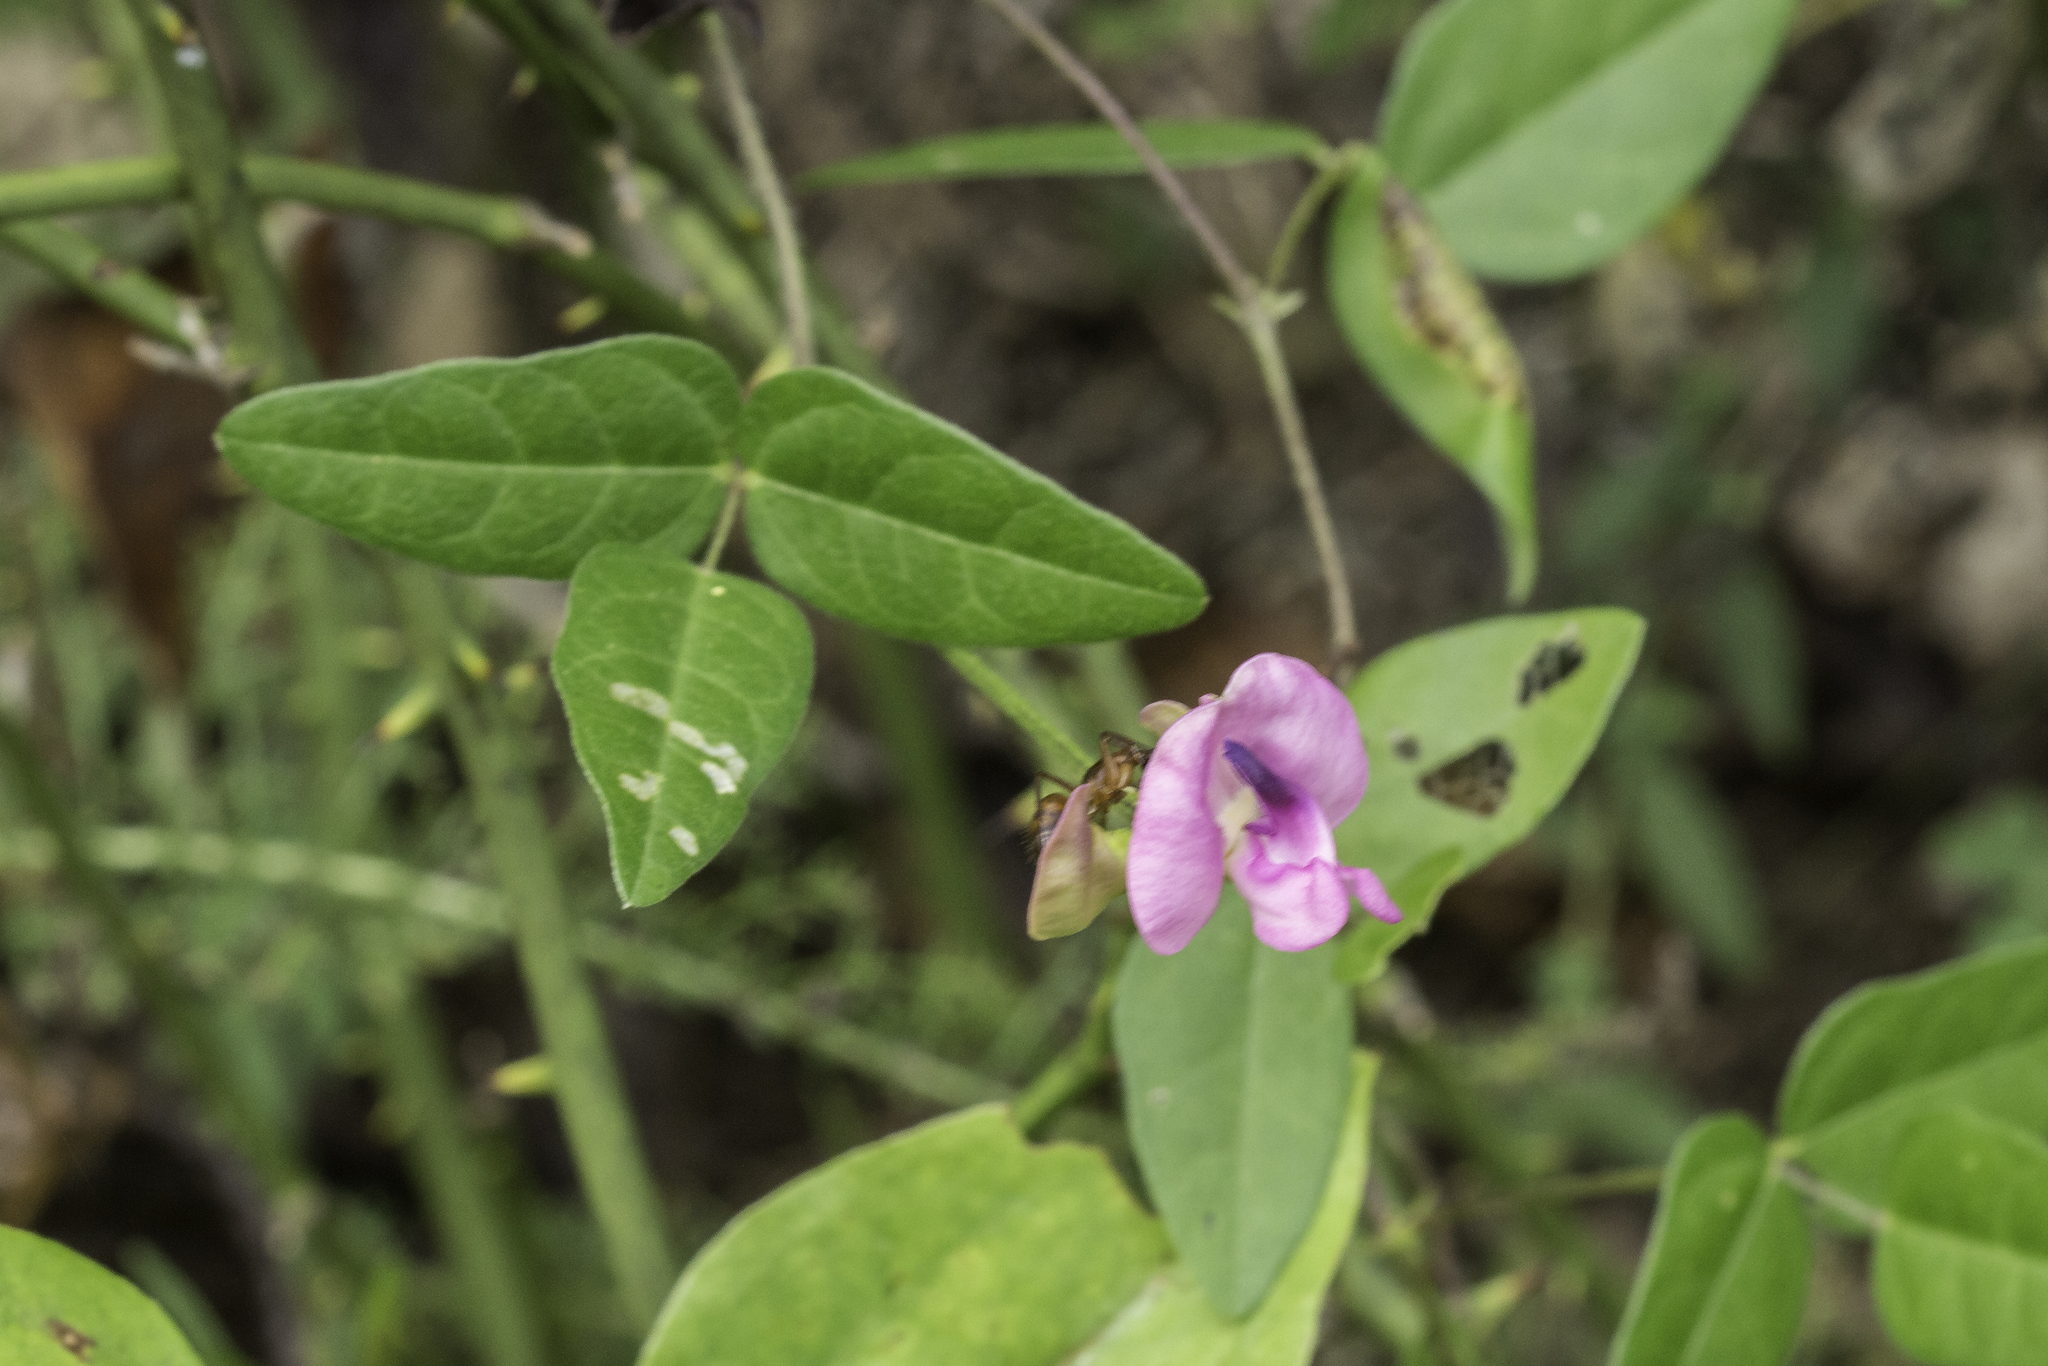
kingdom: Plantae
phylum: Tracheophyta
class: Magnoliopsida
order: Fabales
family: Fabaceae
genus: Strophostyles
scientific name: Strophostyles umbellata
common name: Perennial wild bean
